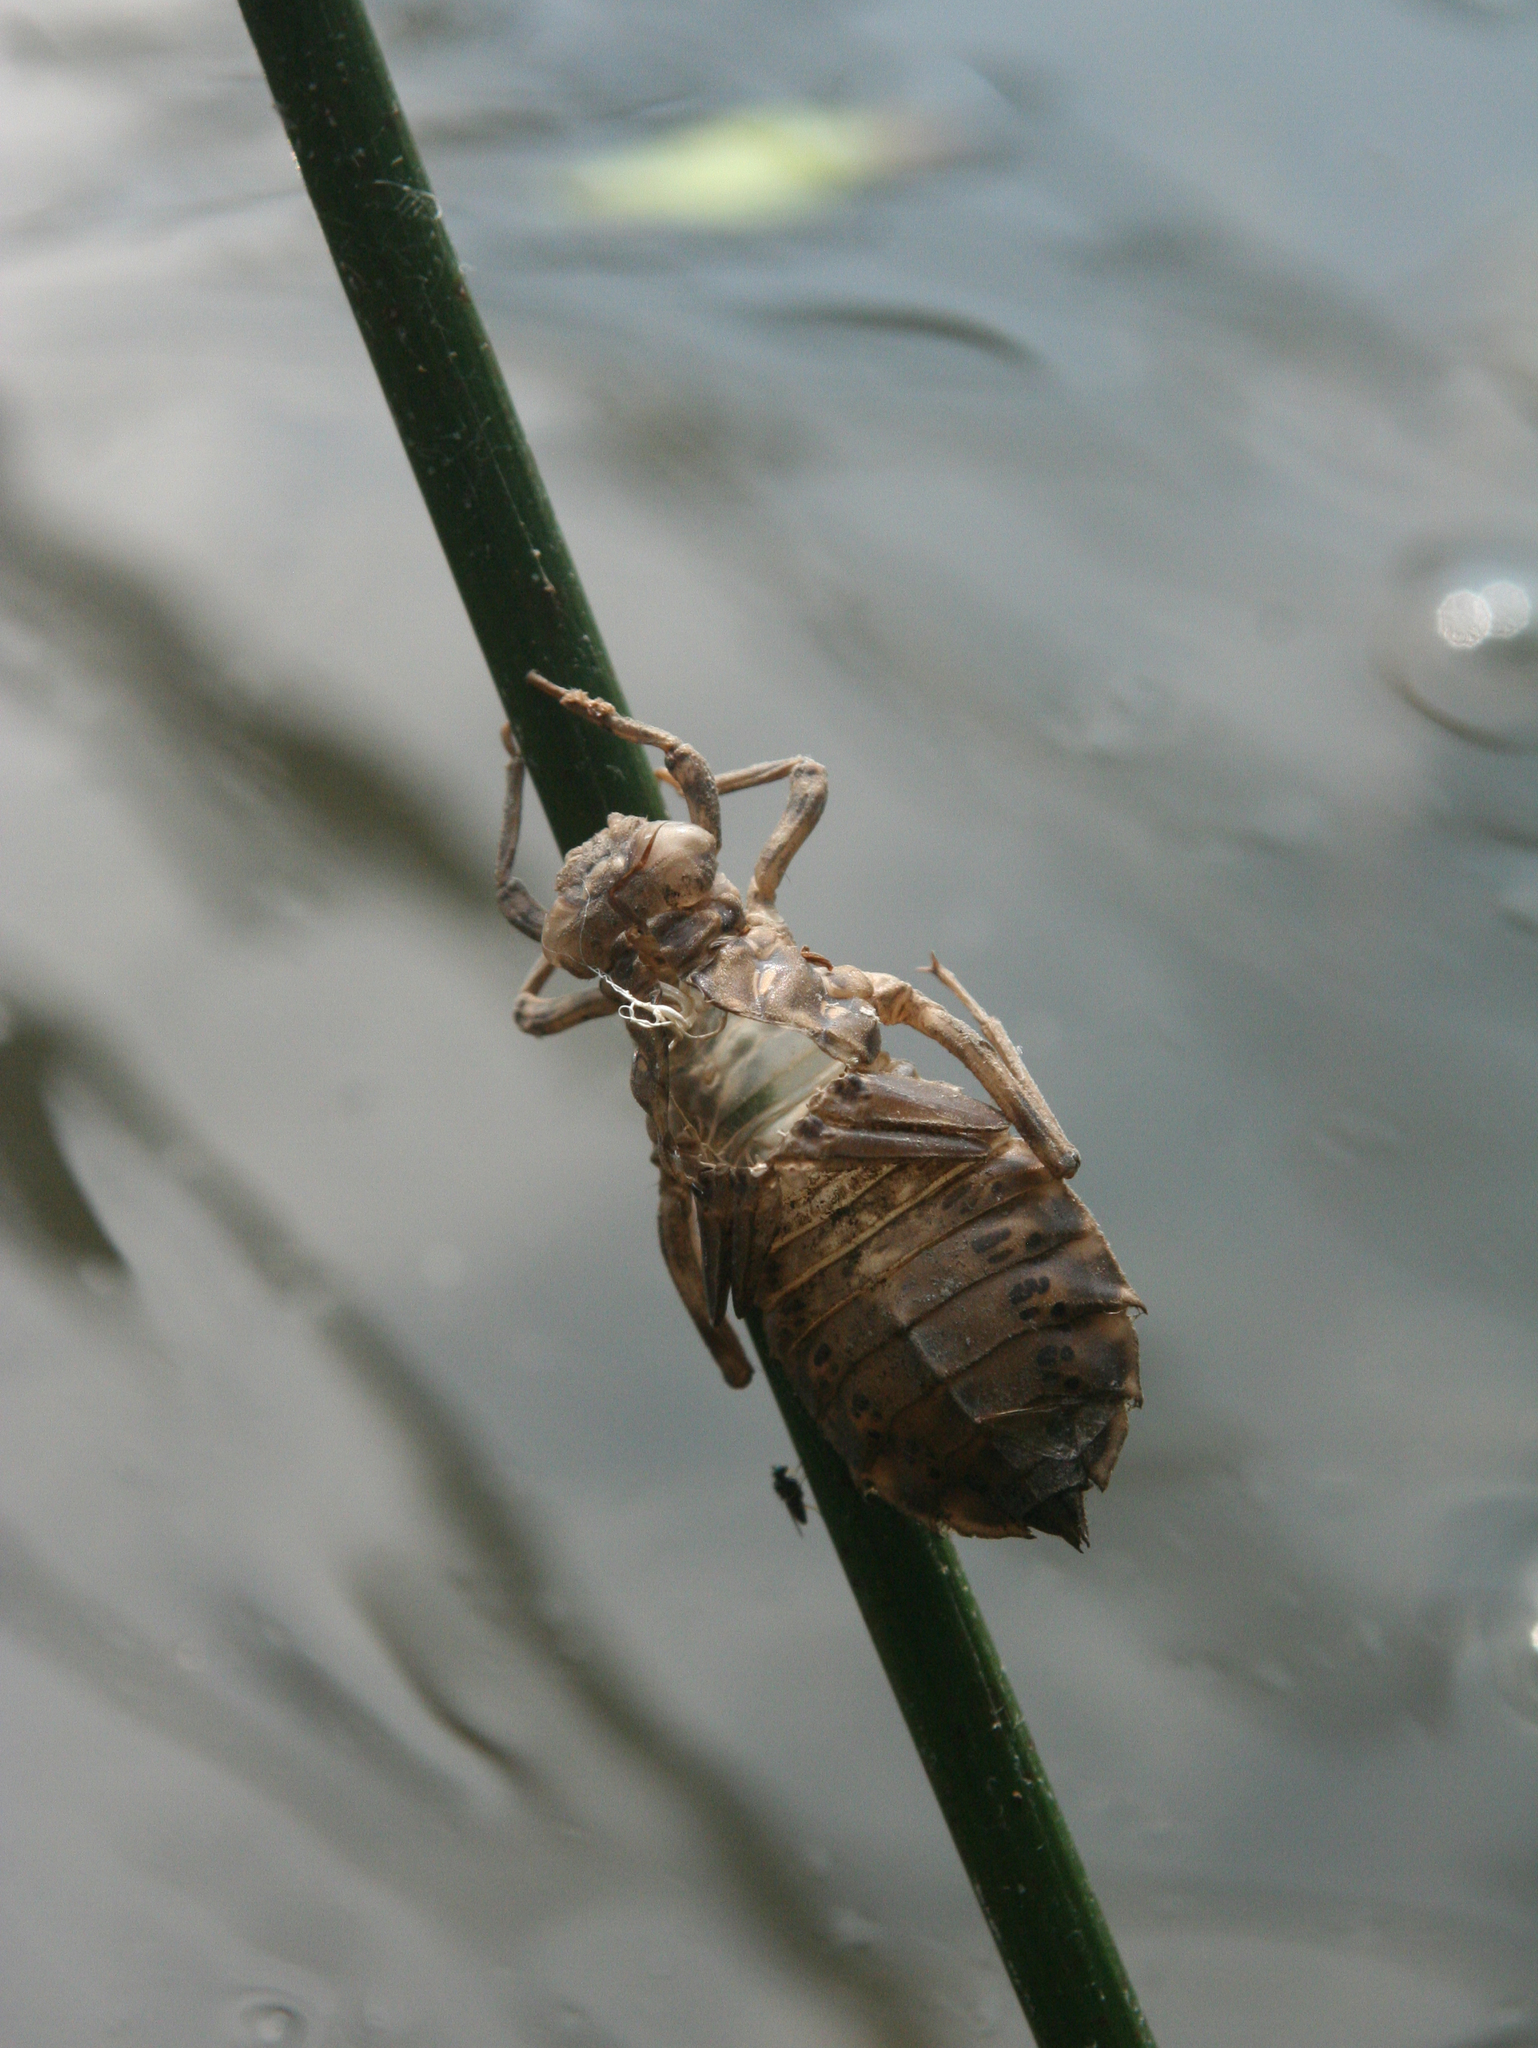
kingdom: Animalia
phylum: Arthropoda
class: Insecta
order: Odonata
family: Gomphidae
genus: Lindenia
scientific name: Lindenia tetraphylla
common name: Bladetail
